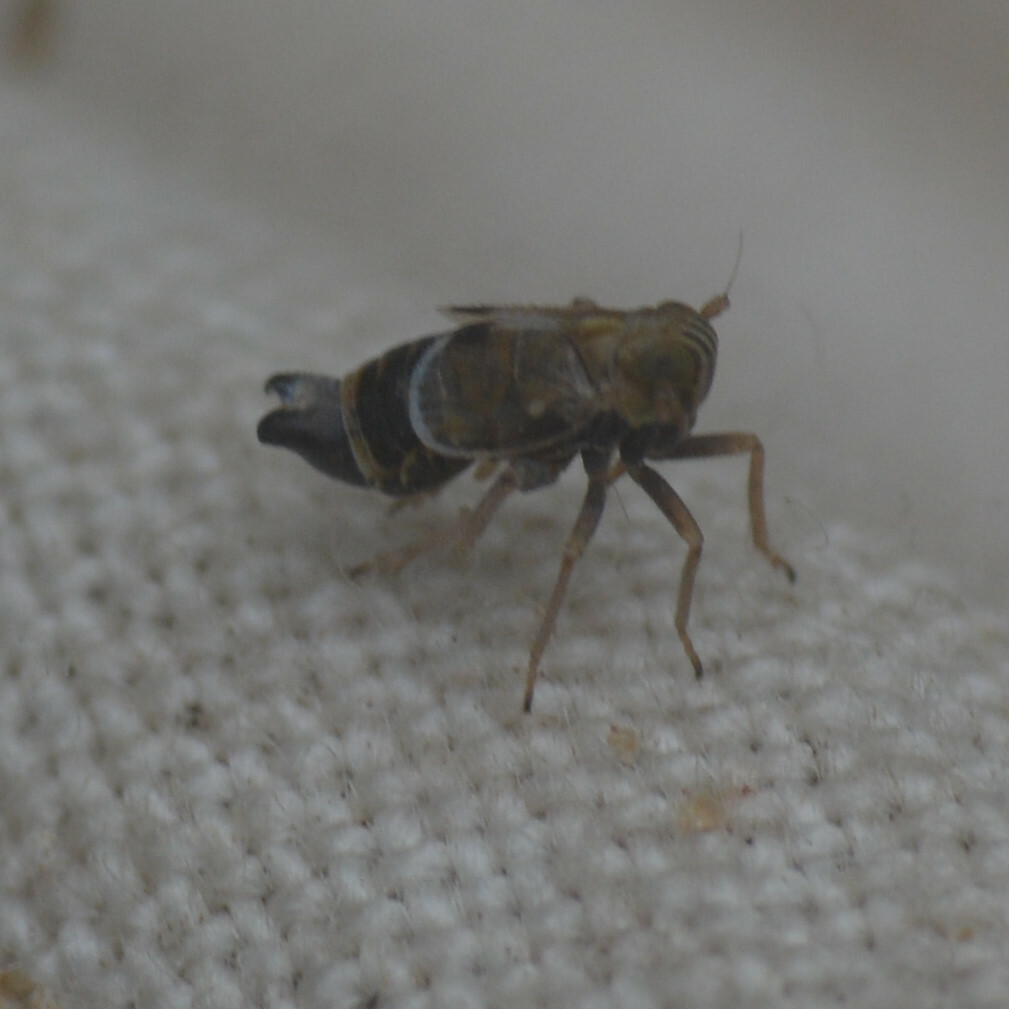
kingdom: Animalia
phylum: Arthropoda
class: Insecta
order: Hemiptera
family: Delphacidae
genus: Dicranotropis
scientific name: Dicranotropis hamata
